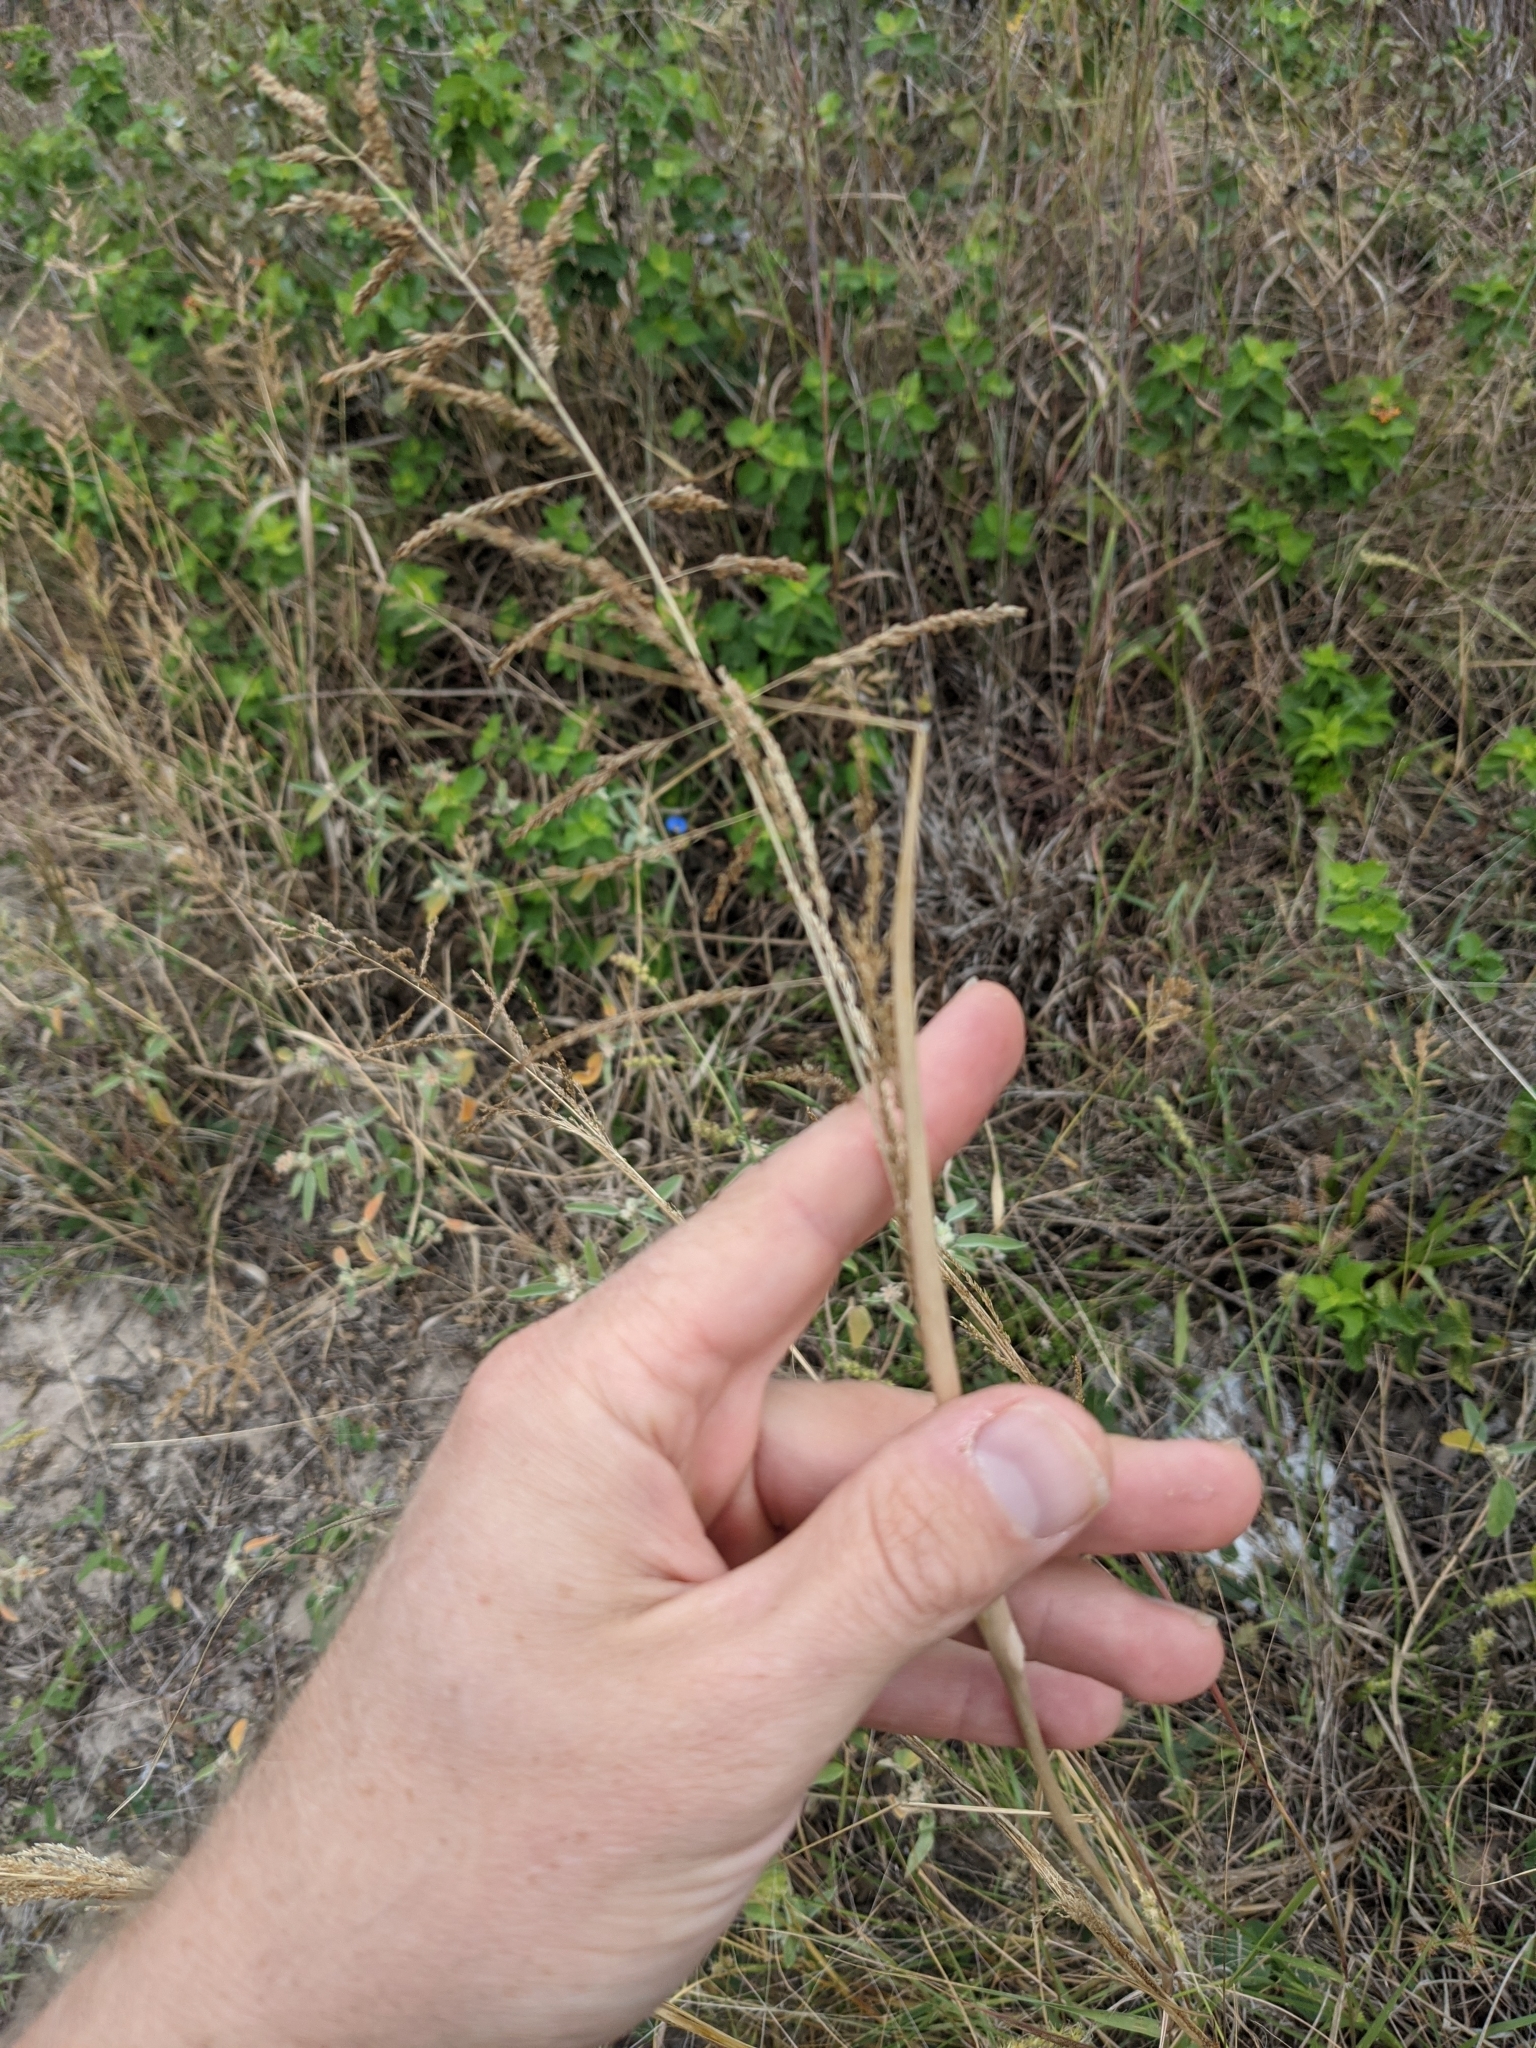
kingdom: Plantae
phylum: Tracheophyta
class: Liliopsida
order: Poales
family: Poaceae
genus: Sporobolus
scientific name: Sporobolus cryptandrus
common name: Sand dropseed
